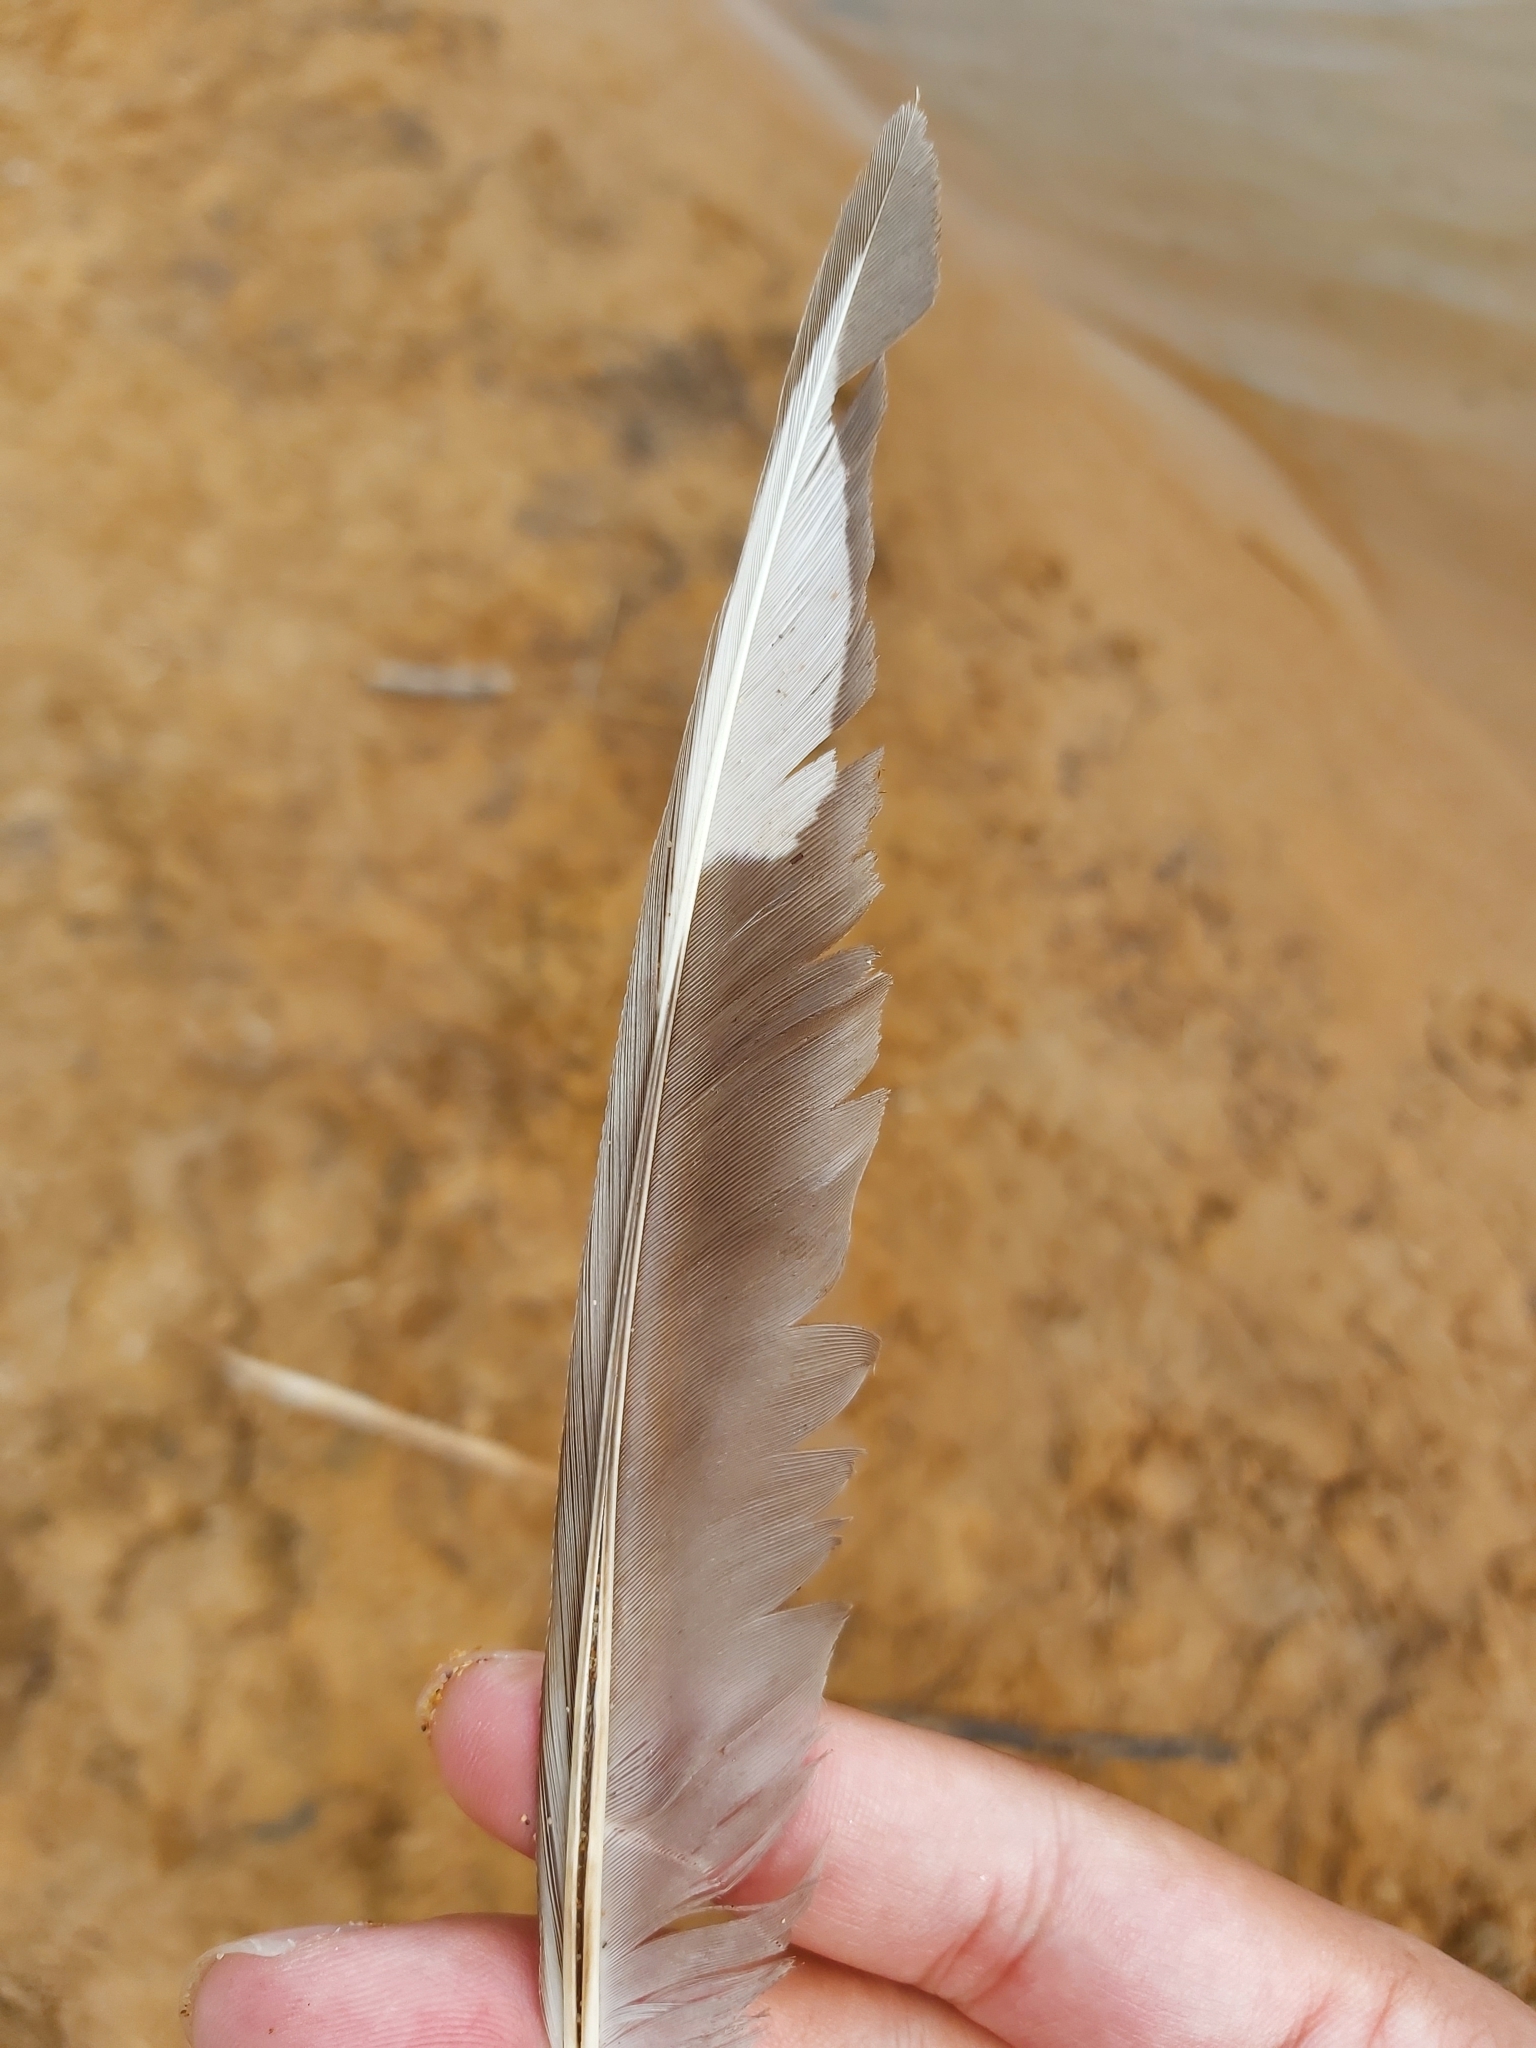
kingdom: Animalia
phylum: Chordata
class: Aves
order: Charadriiformes
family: Laridae
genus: Chroicocephalus
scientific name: Chroicocephalus novaehollandiae
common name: Silver gull
